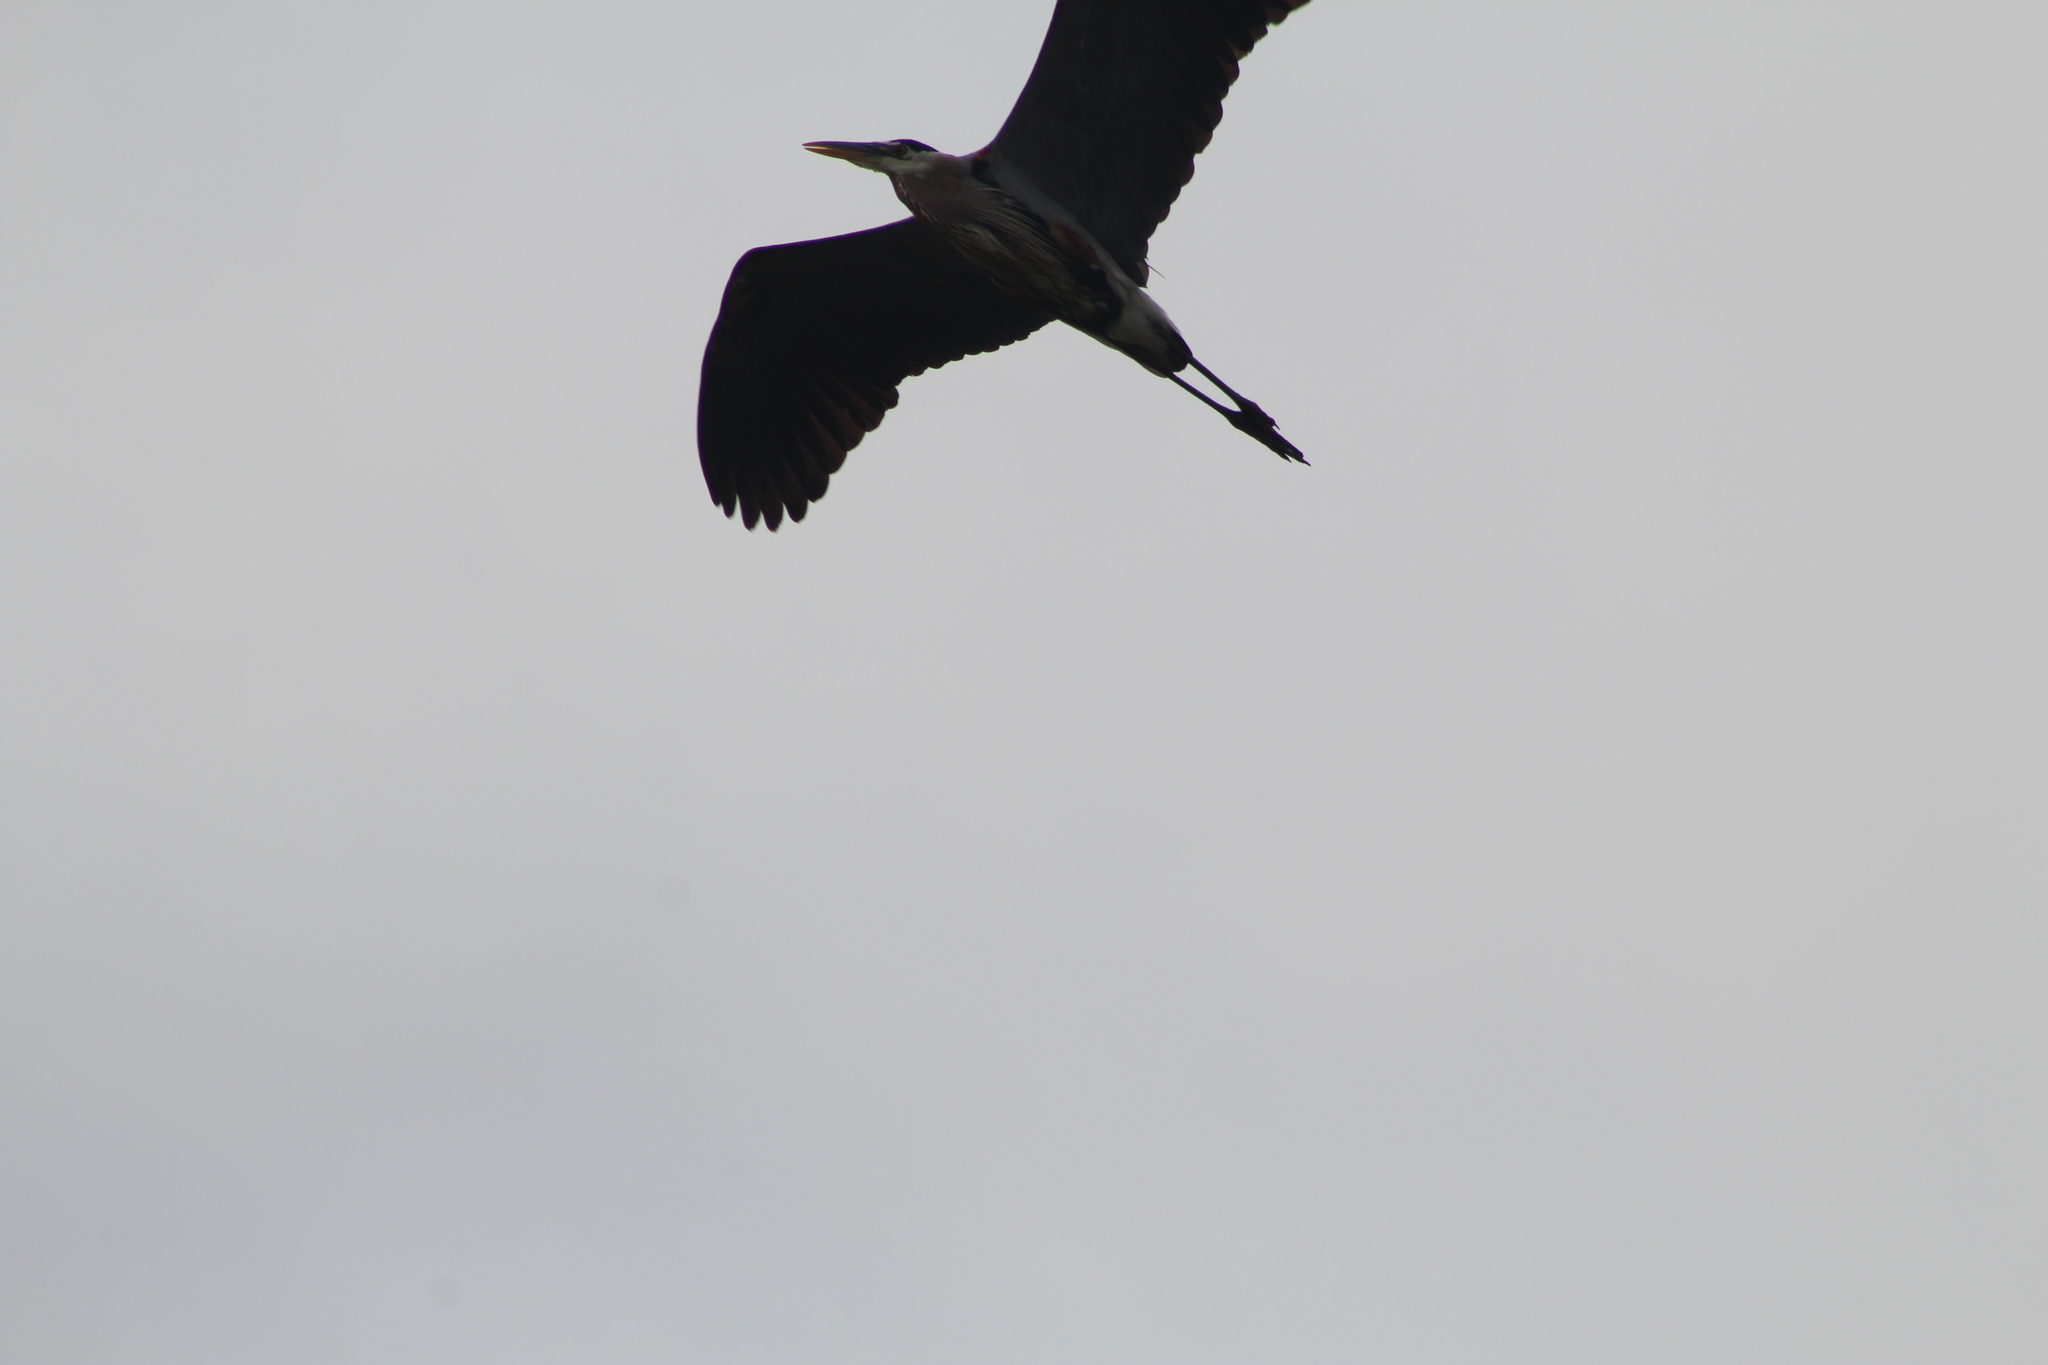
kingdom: Animalia
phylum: Chordata
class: Aves
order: Pelecaniformes
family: Ardeidae
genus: Ardea
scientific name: Ardea herodias
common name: Great blue heron
